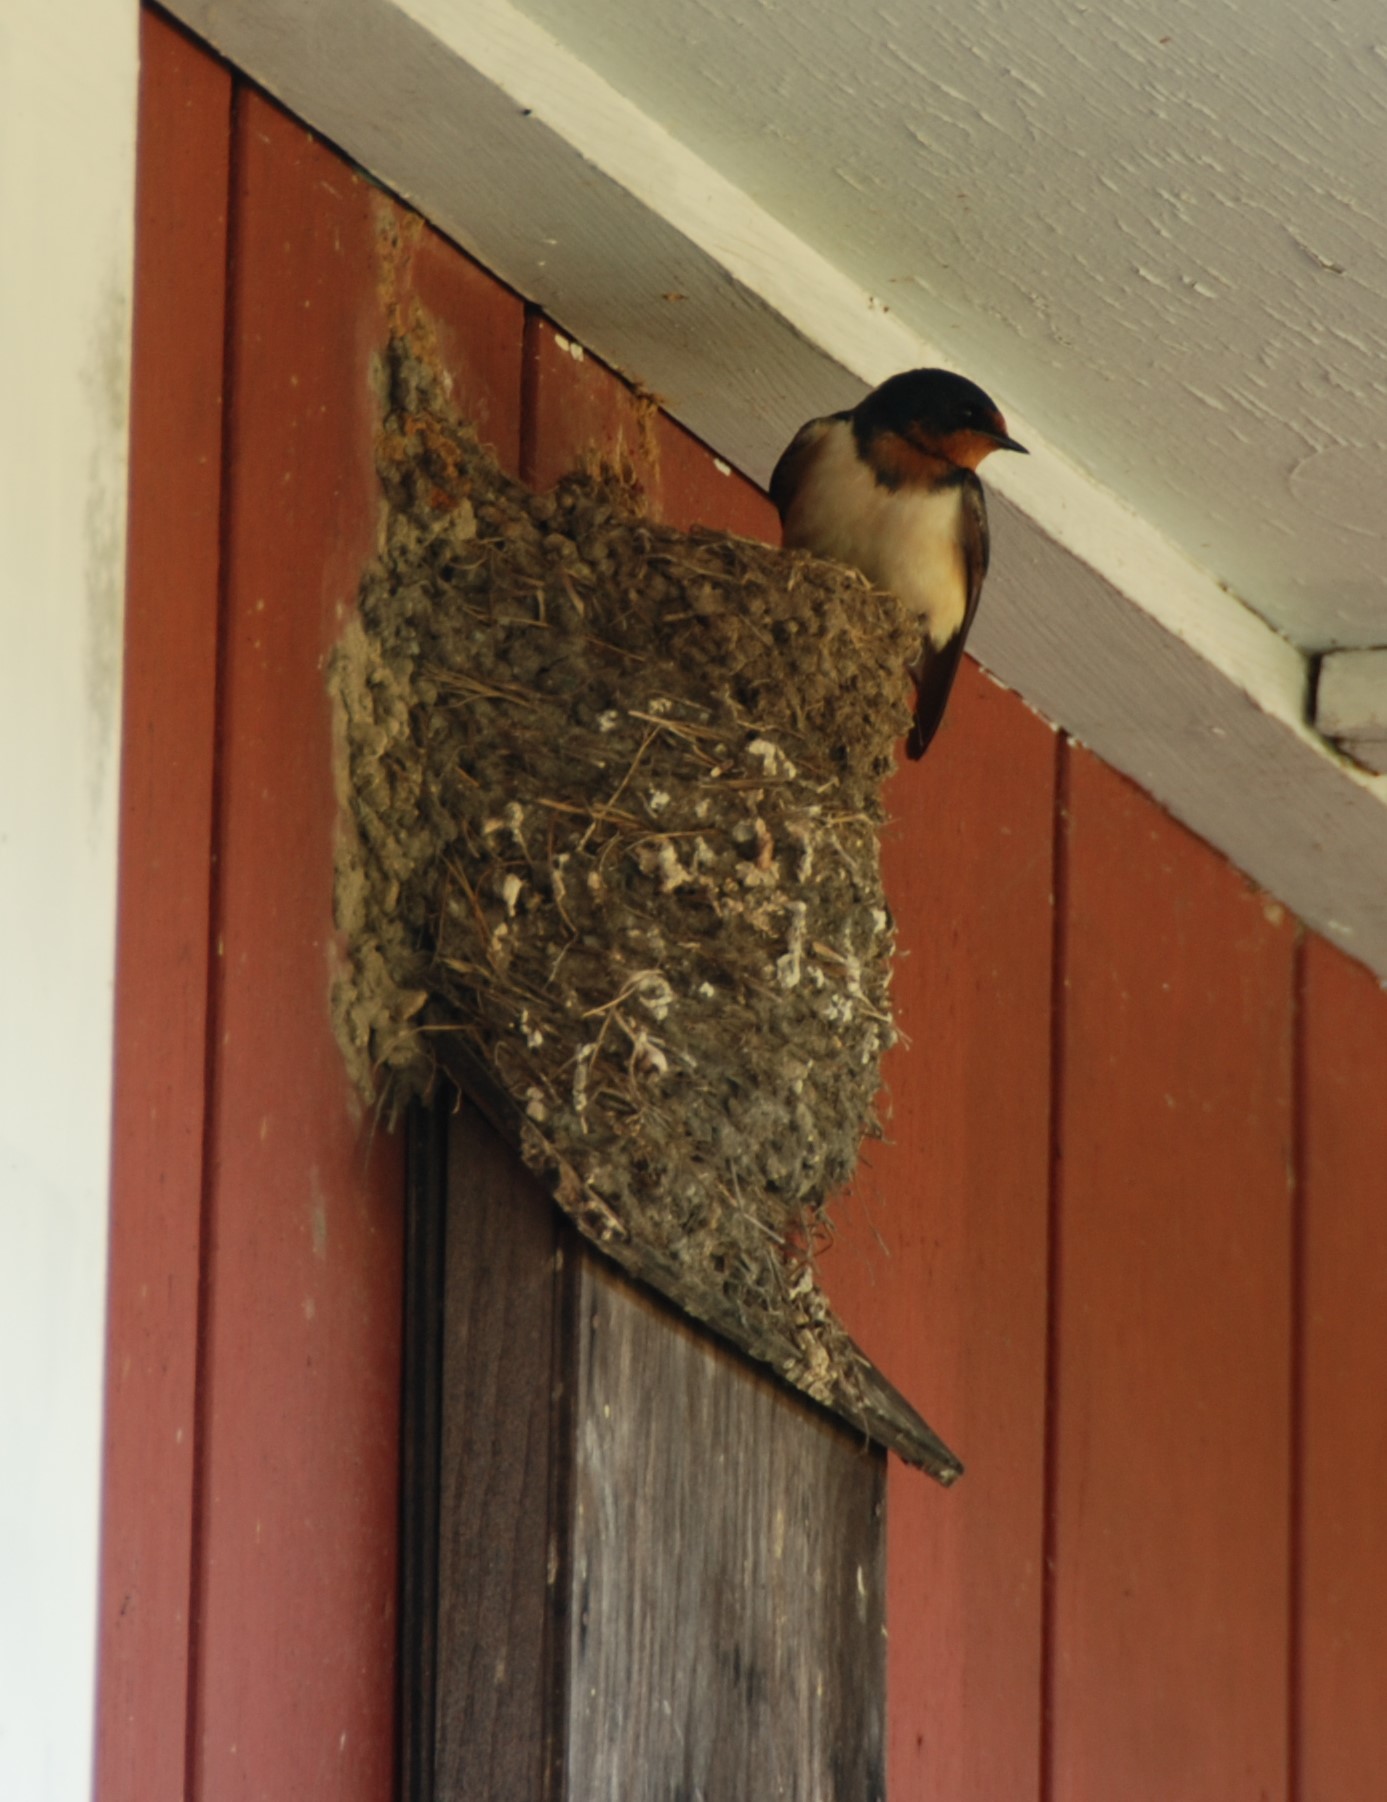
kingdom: Animalia
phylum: Chordata
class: Aves
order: Passeriformes
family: Hirundinidae
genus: Hirundo
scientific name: Hirundo rustica
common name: Barn swallow
